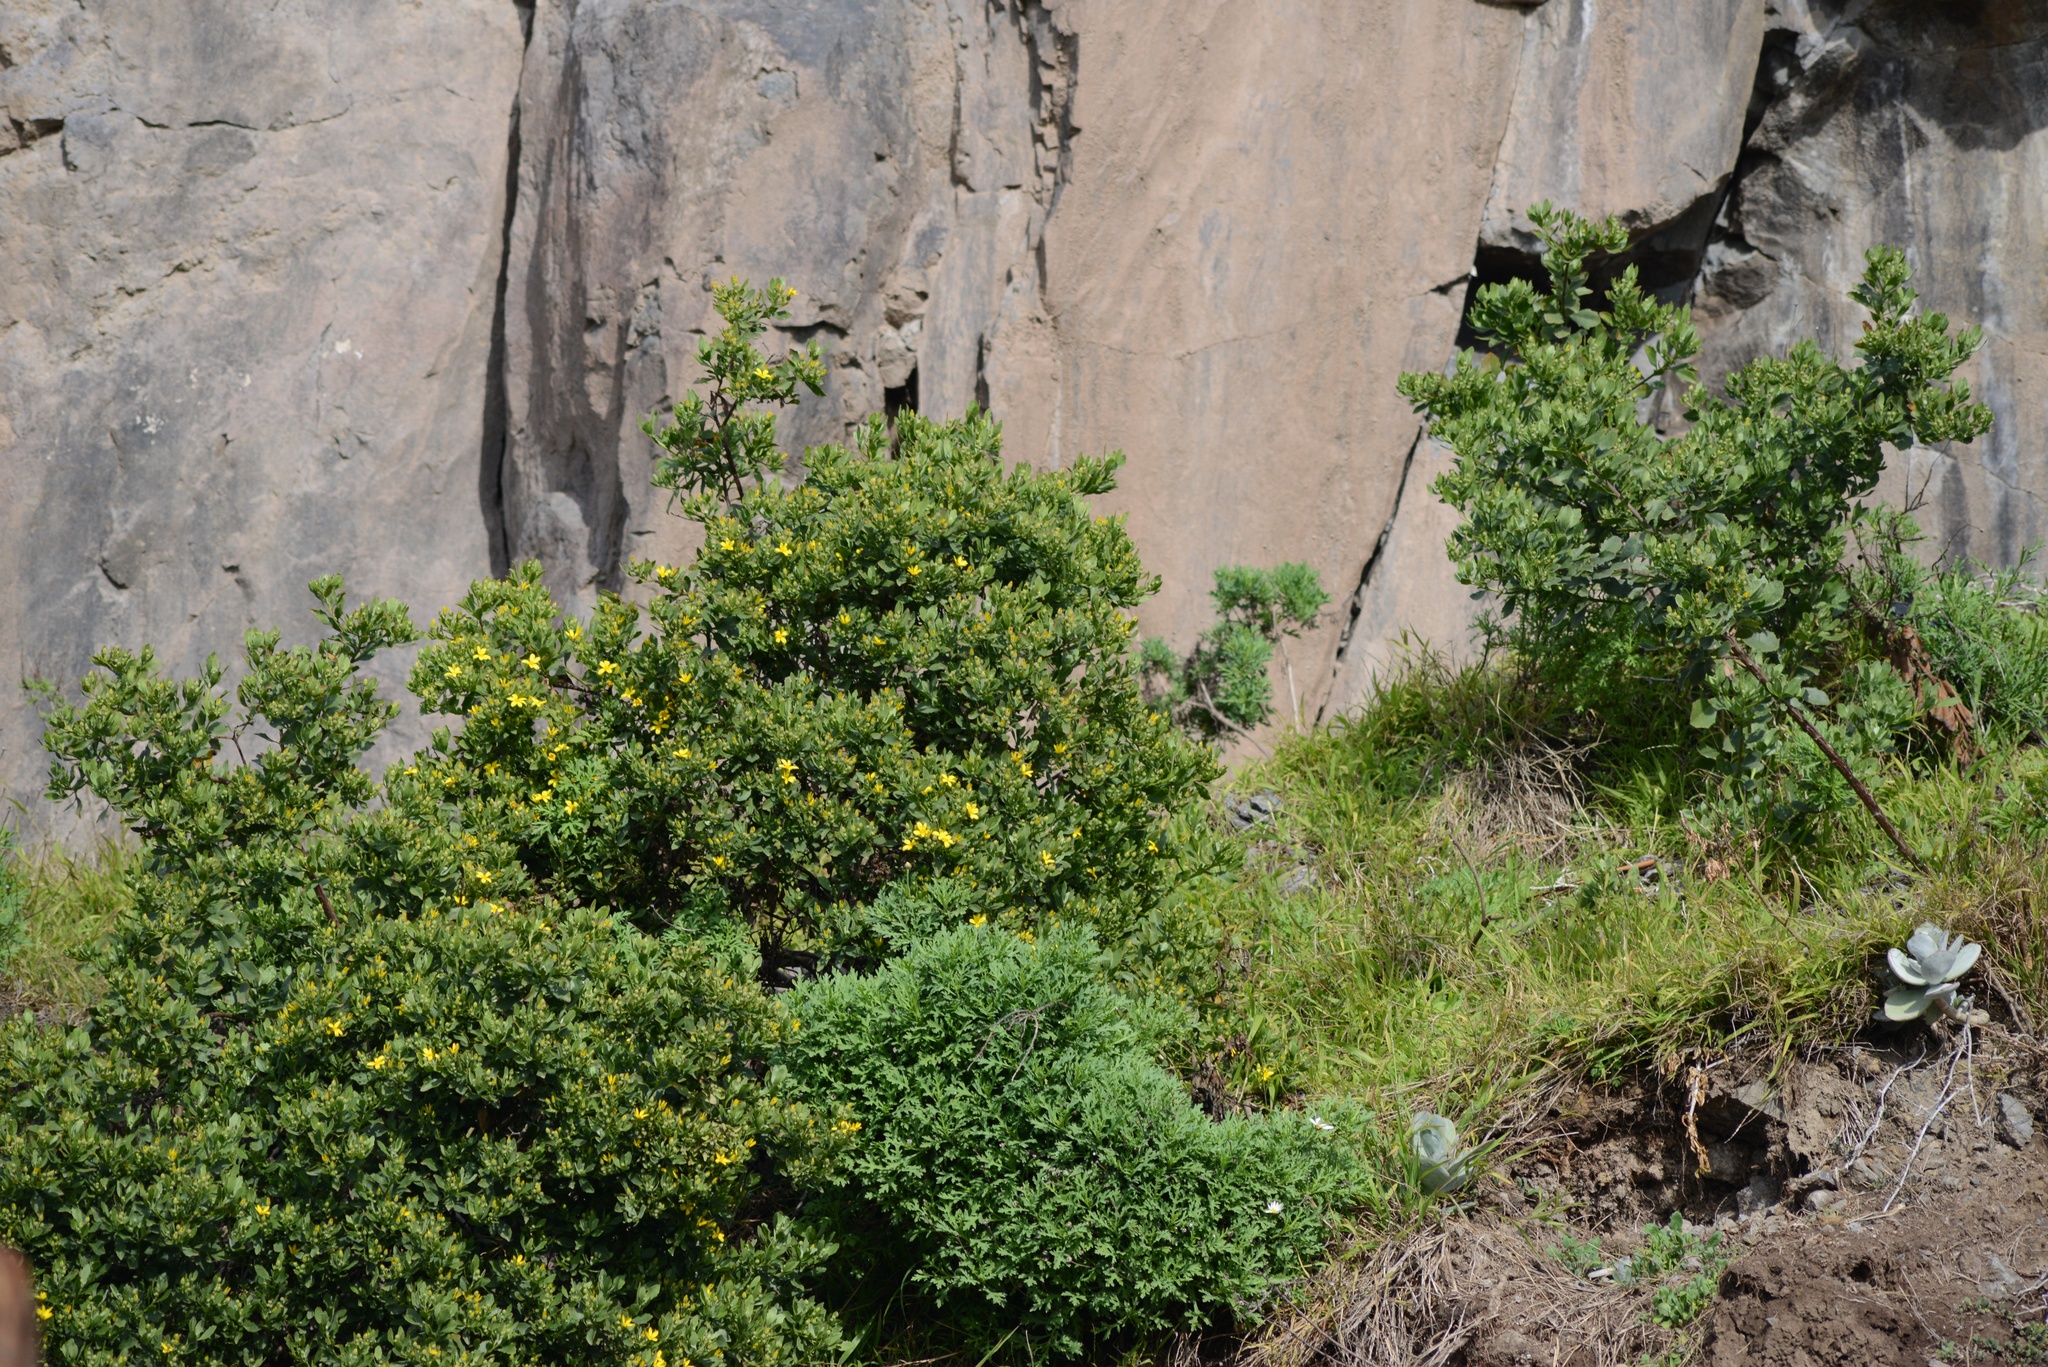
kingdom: Plantae
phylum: Tracheophyta
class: Magnoliopsida
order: Asterales
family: Asteraceae
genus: Osteospermum
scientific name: Osteospermum moniliferum
